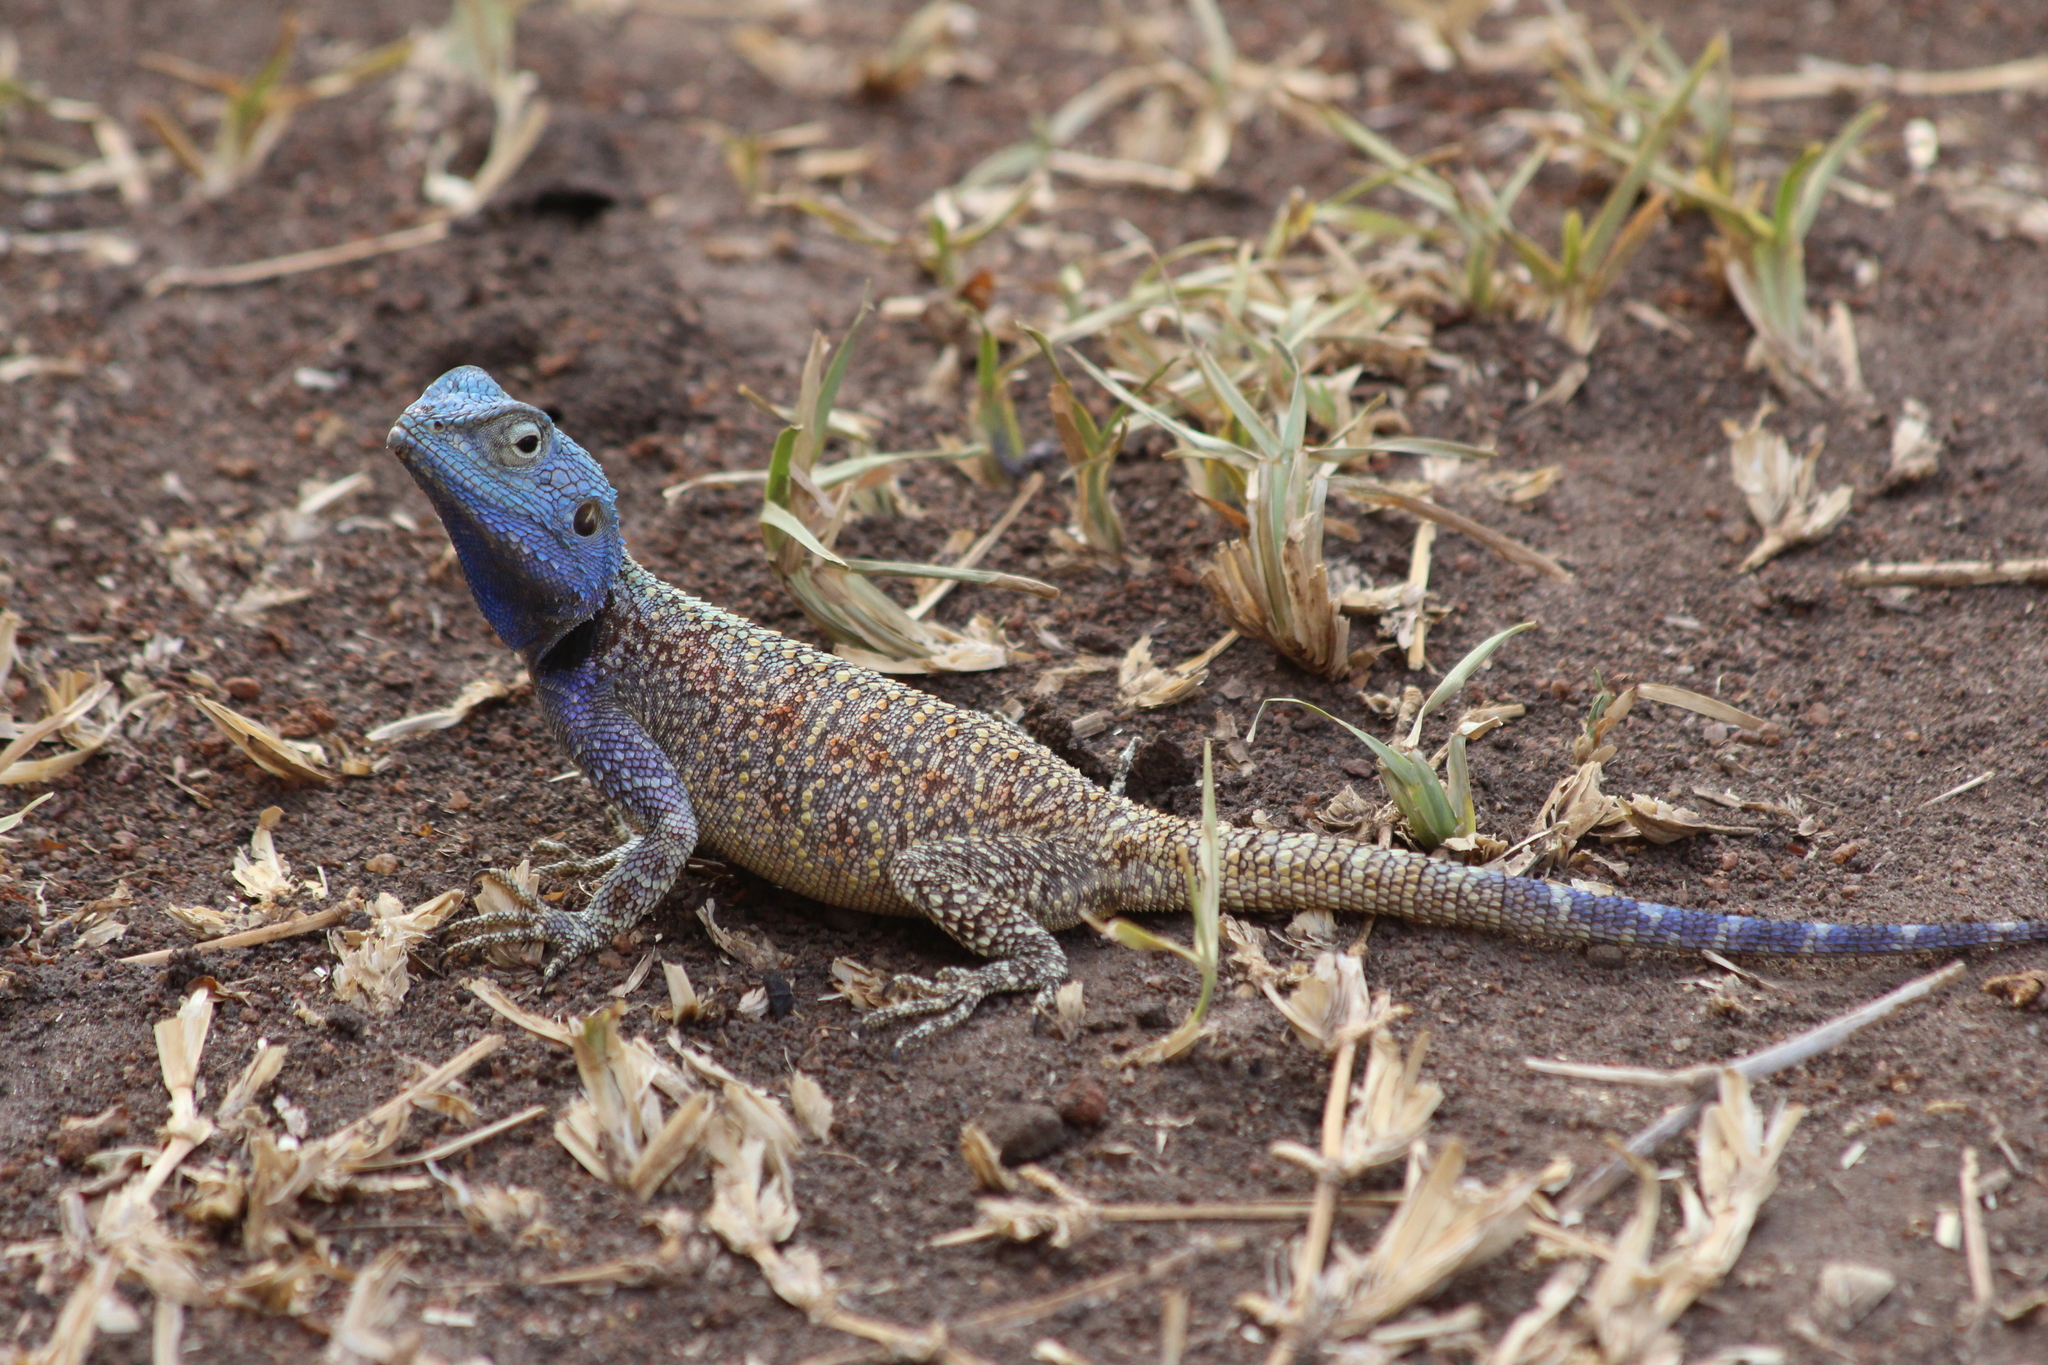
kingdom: Animalia
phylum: Chordata
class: Squamata
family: Agamidae
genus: Acanthocercus
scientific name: Acanthocercus branchi
